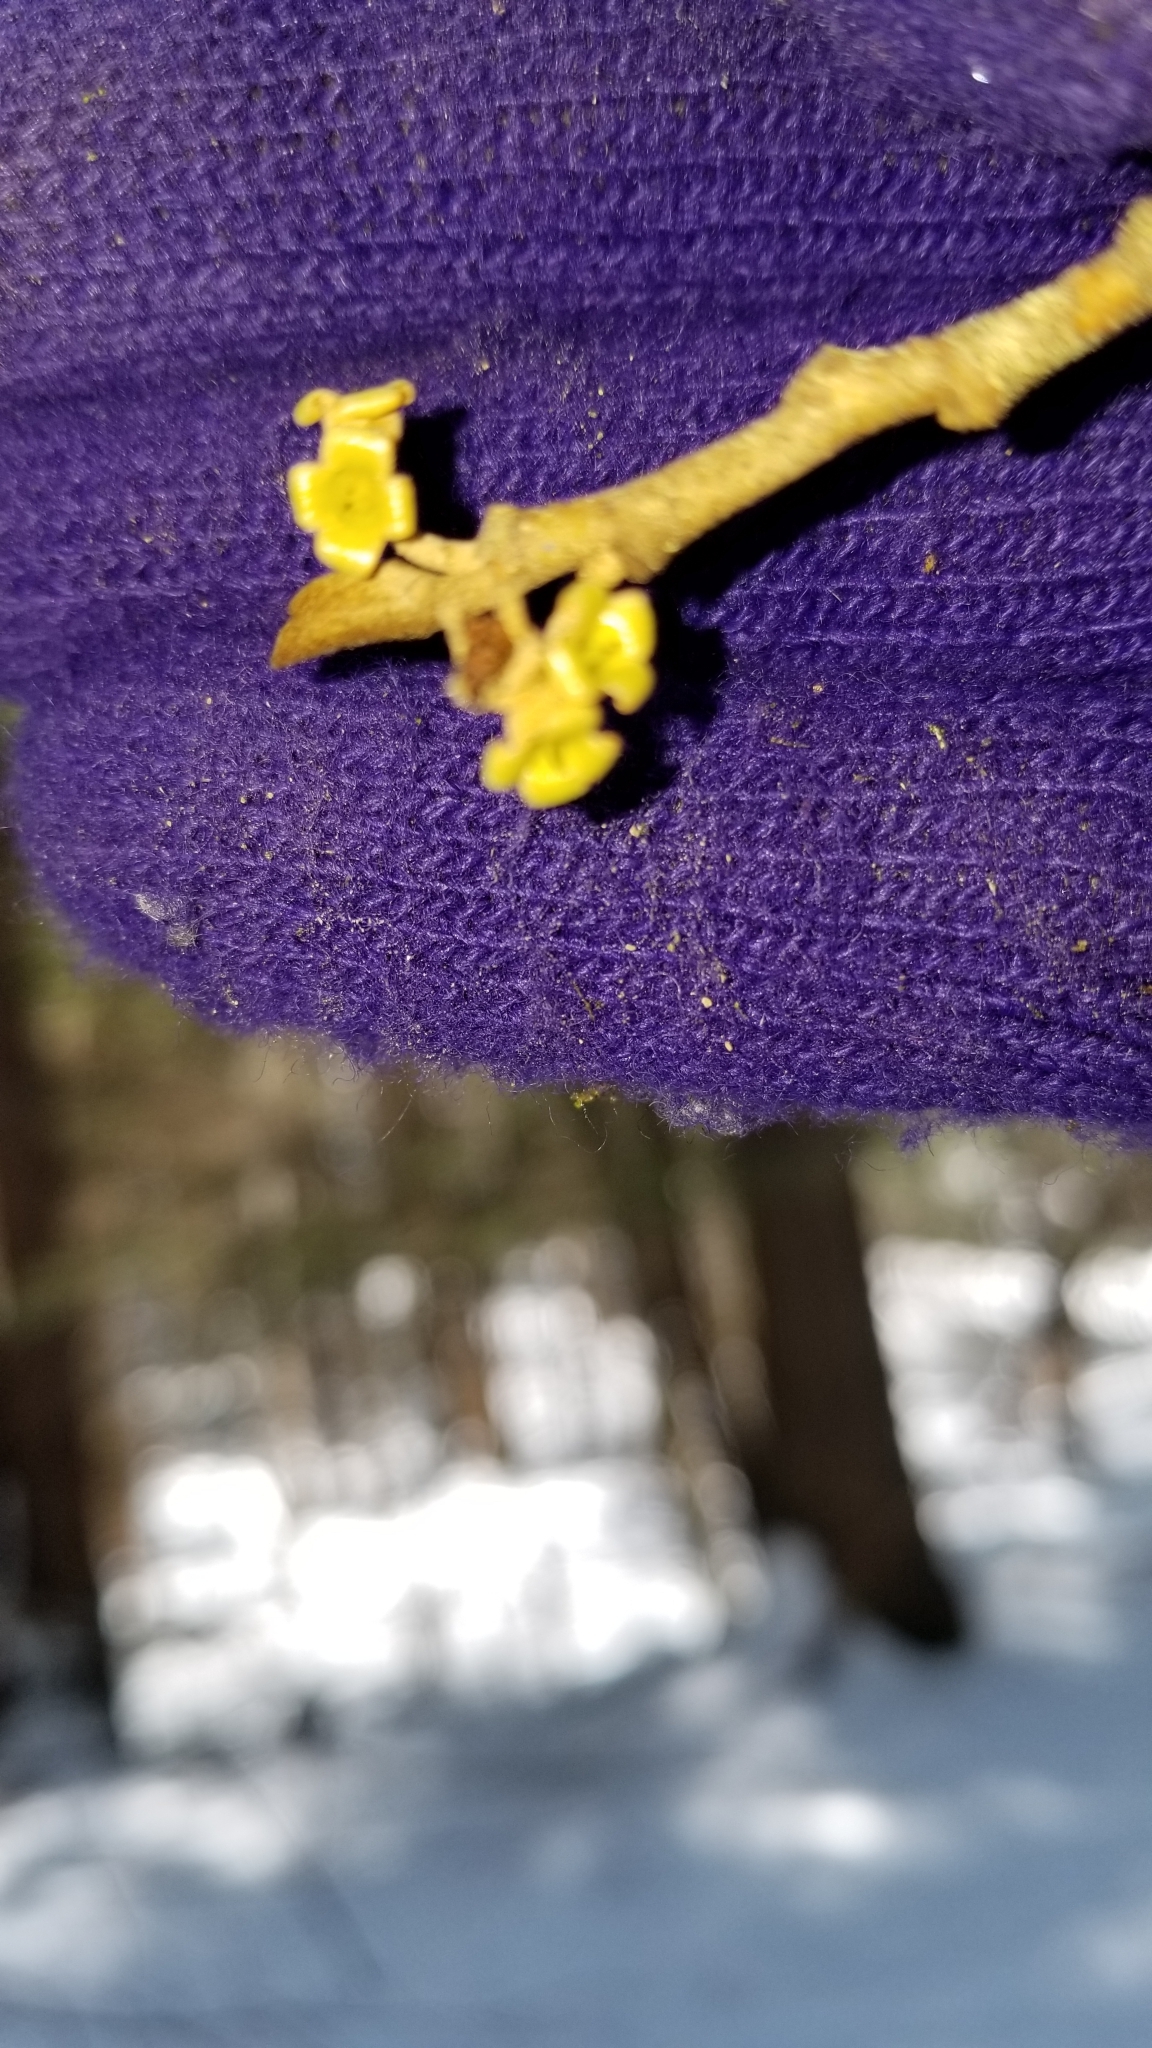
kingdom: Plantae
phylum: Tracheophyta
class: Magnoliopsida
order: Saxifragales
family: Hamamelidaceae
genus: Hamamelis
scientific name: Hamamelis virginiana
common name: Witch-hazel
